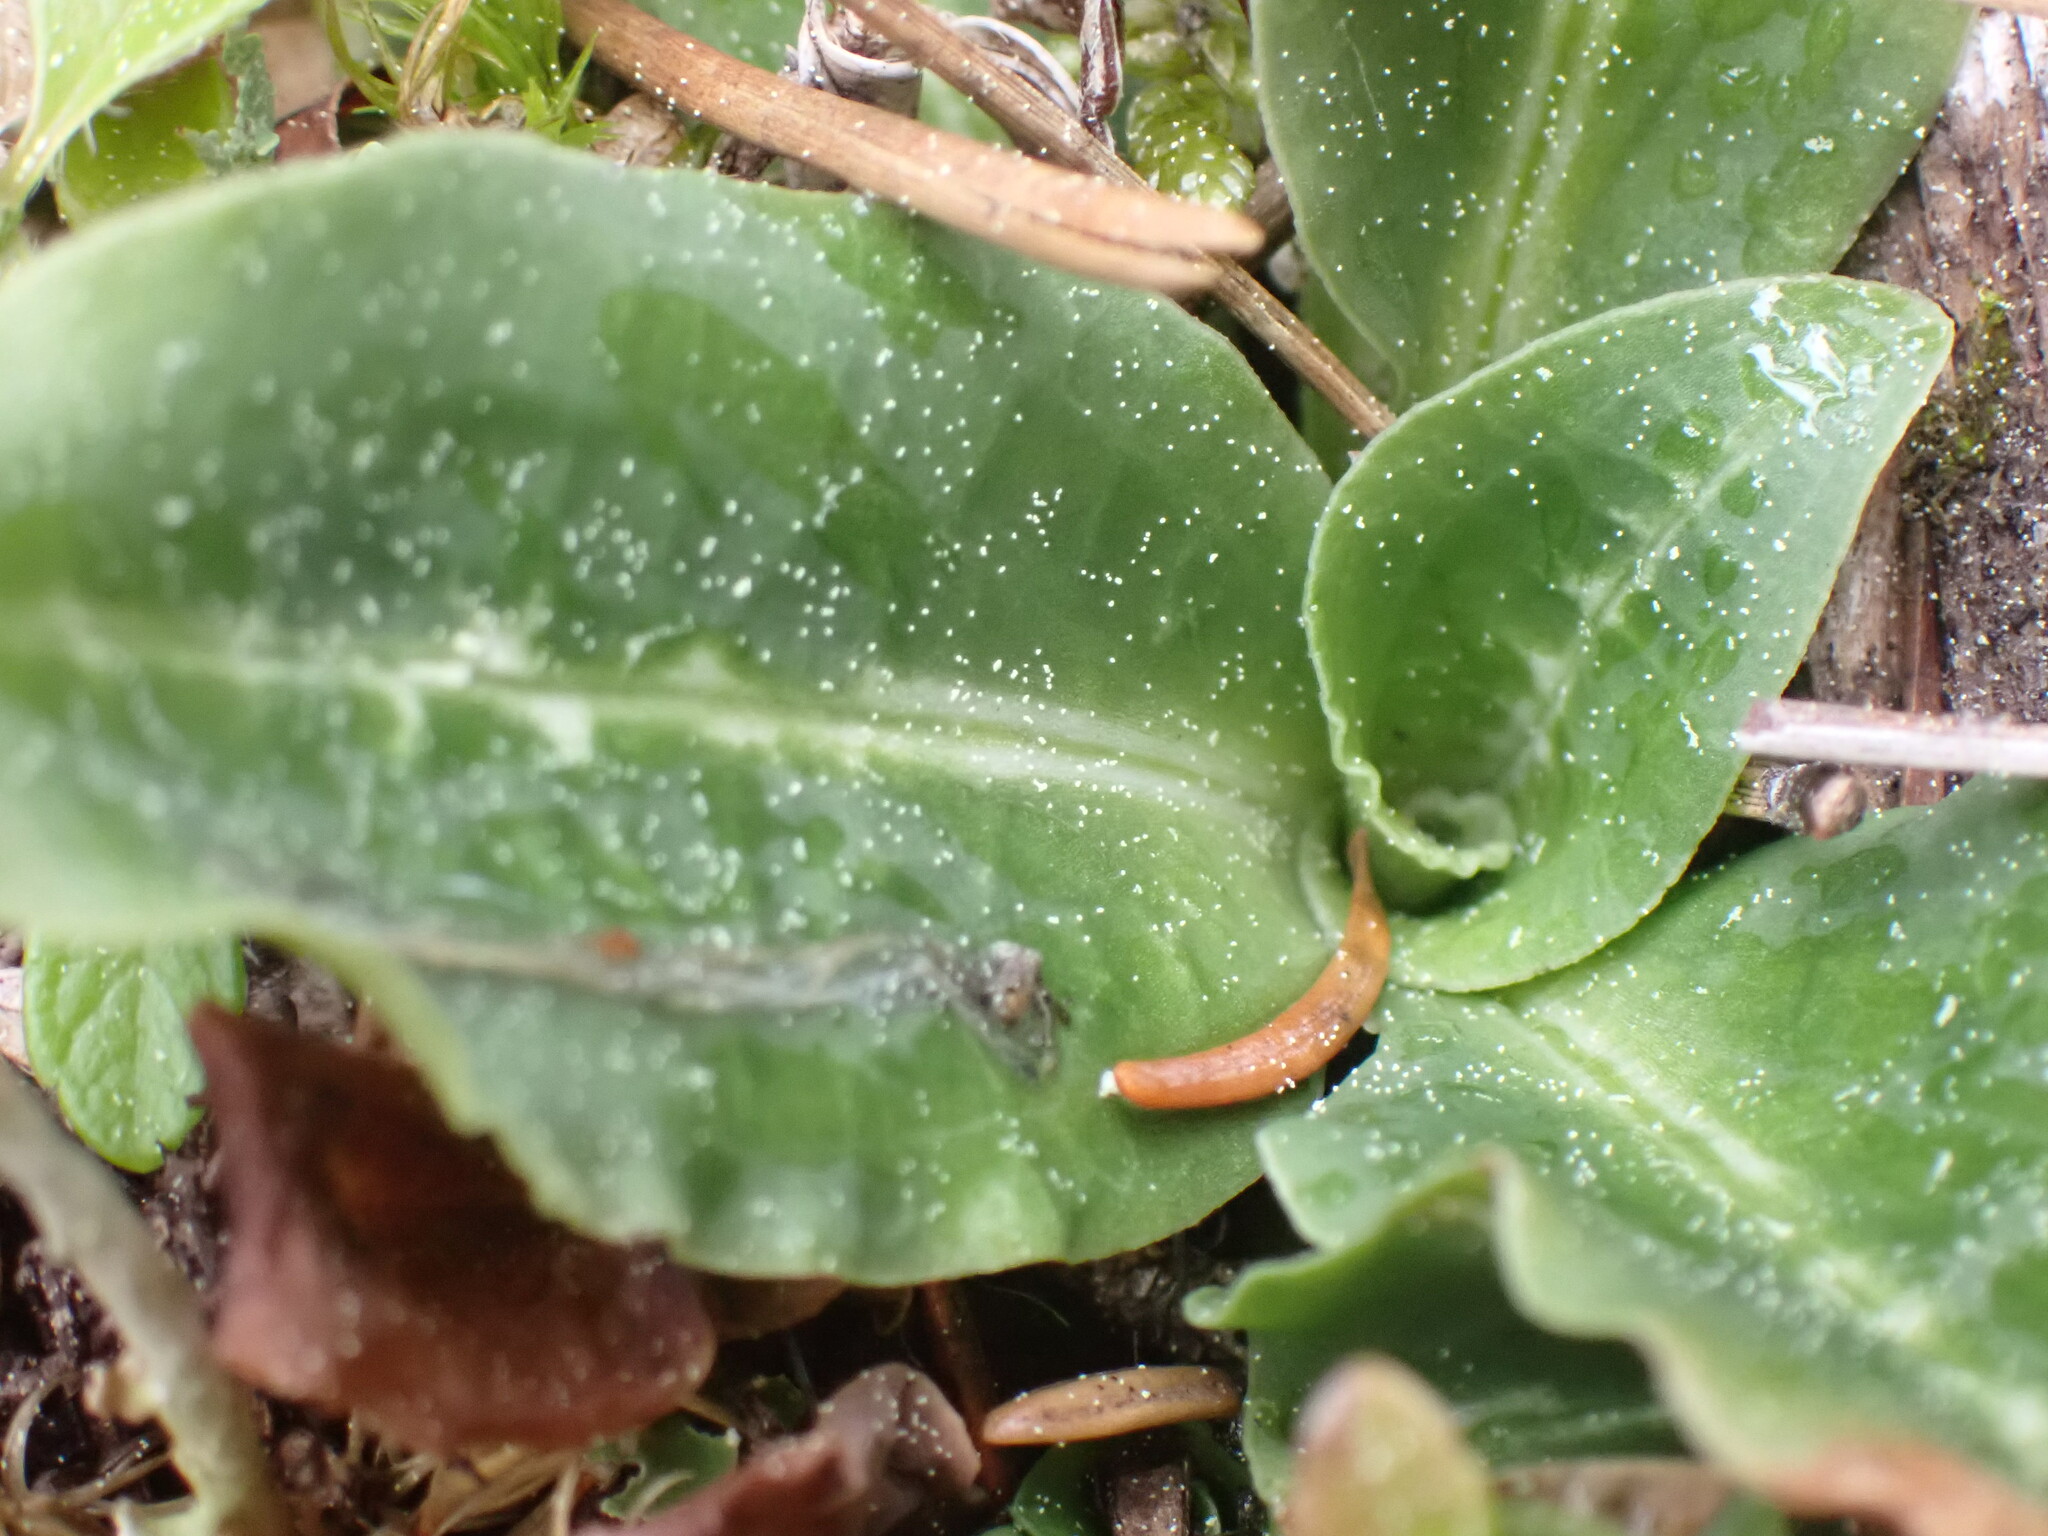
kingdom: Plantae
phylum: Tracheophyta
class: Liliopsida
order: Asparagales
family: Orchidaceae
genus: Goodyera
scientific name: Goodyera oblongifolia
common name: Giant rattlesnake-plantain
